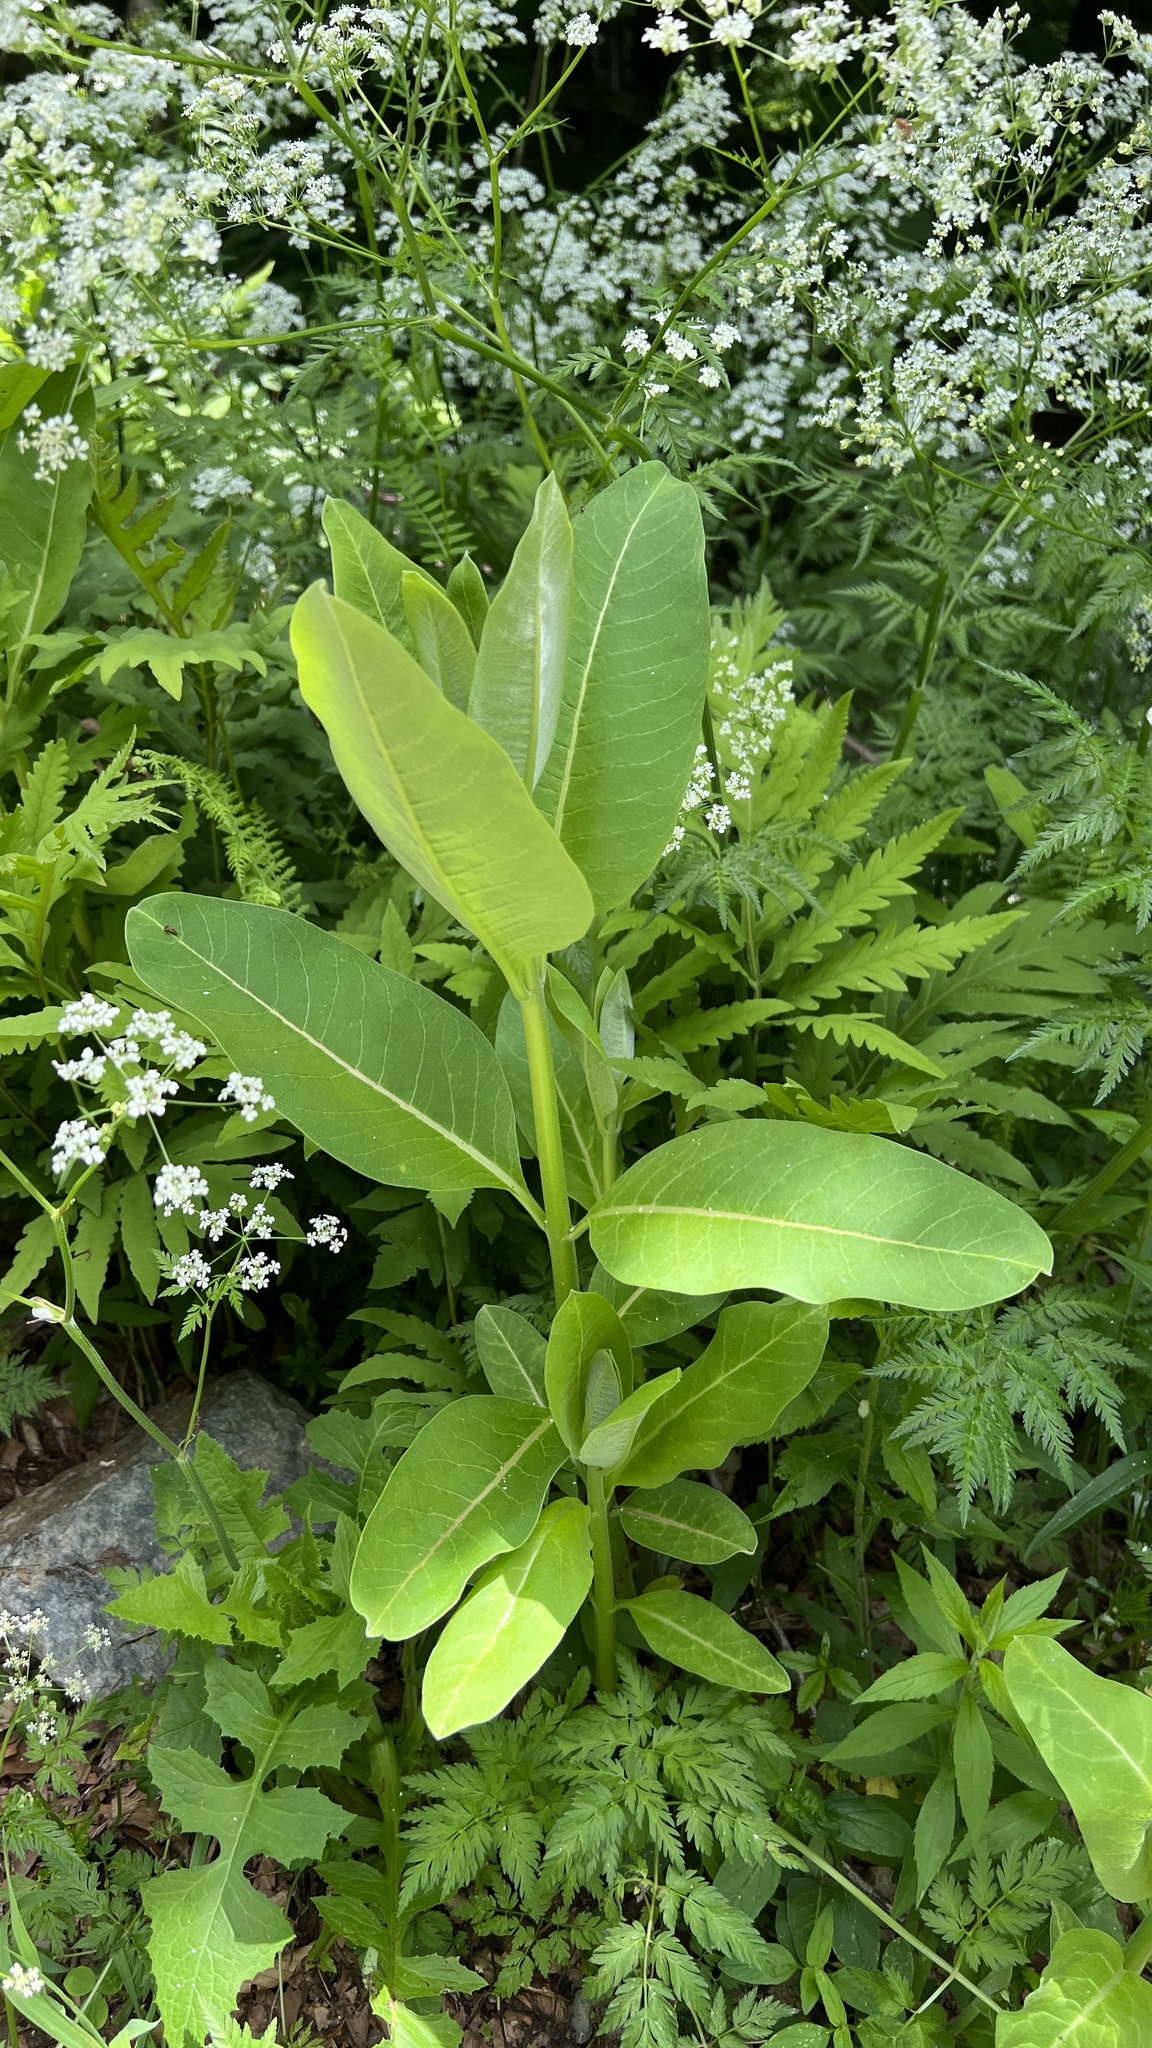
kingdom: Plantae
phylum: Tracheophyta
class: Magnoliopsida
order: Gentianales
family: Apocynaceae
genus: Asclepias
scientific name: Asclepias syriaca
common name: Common milkweed
